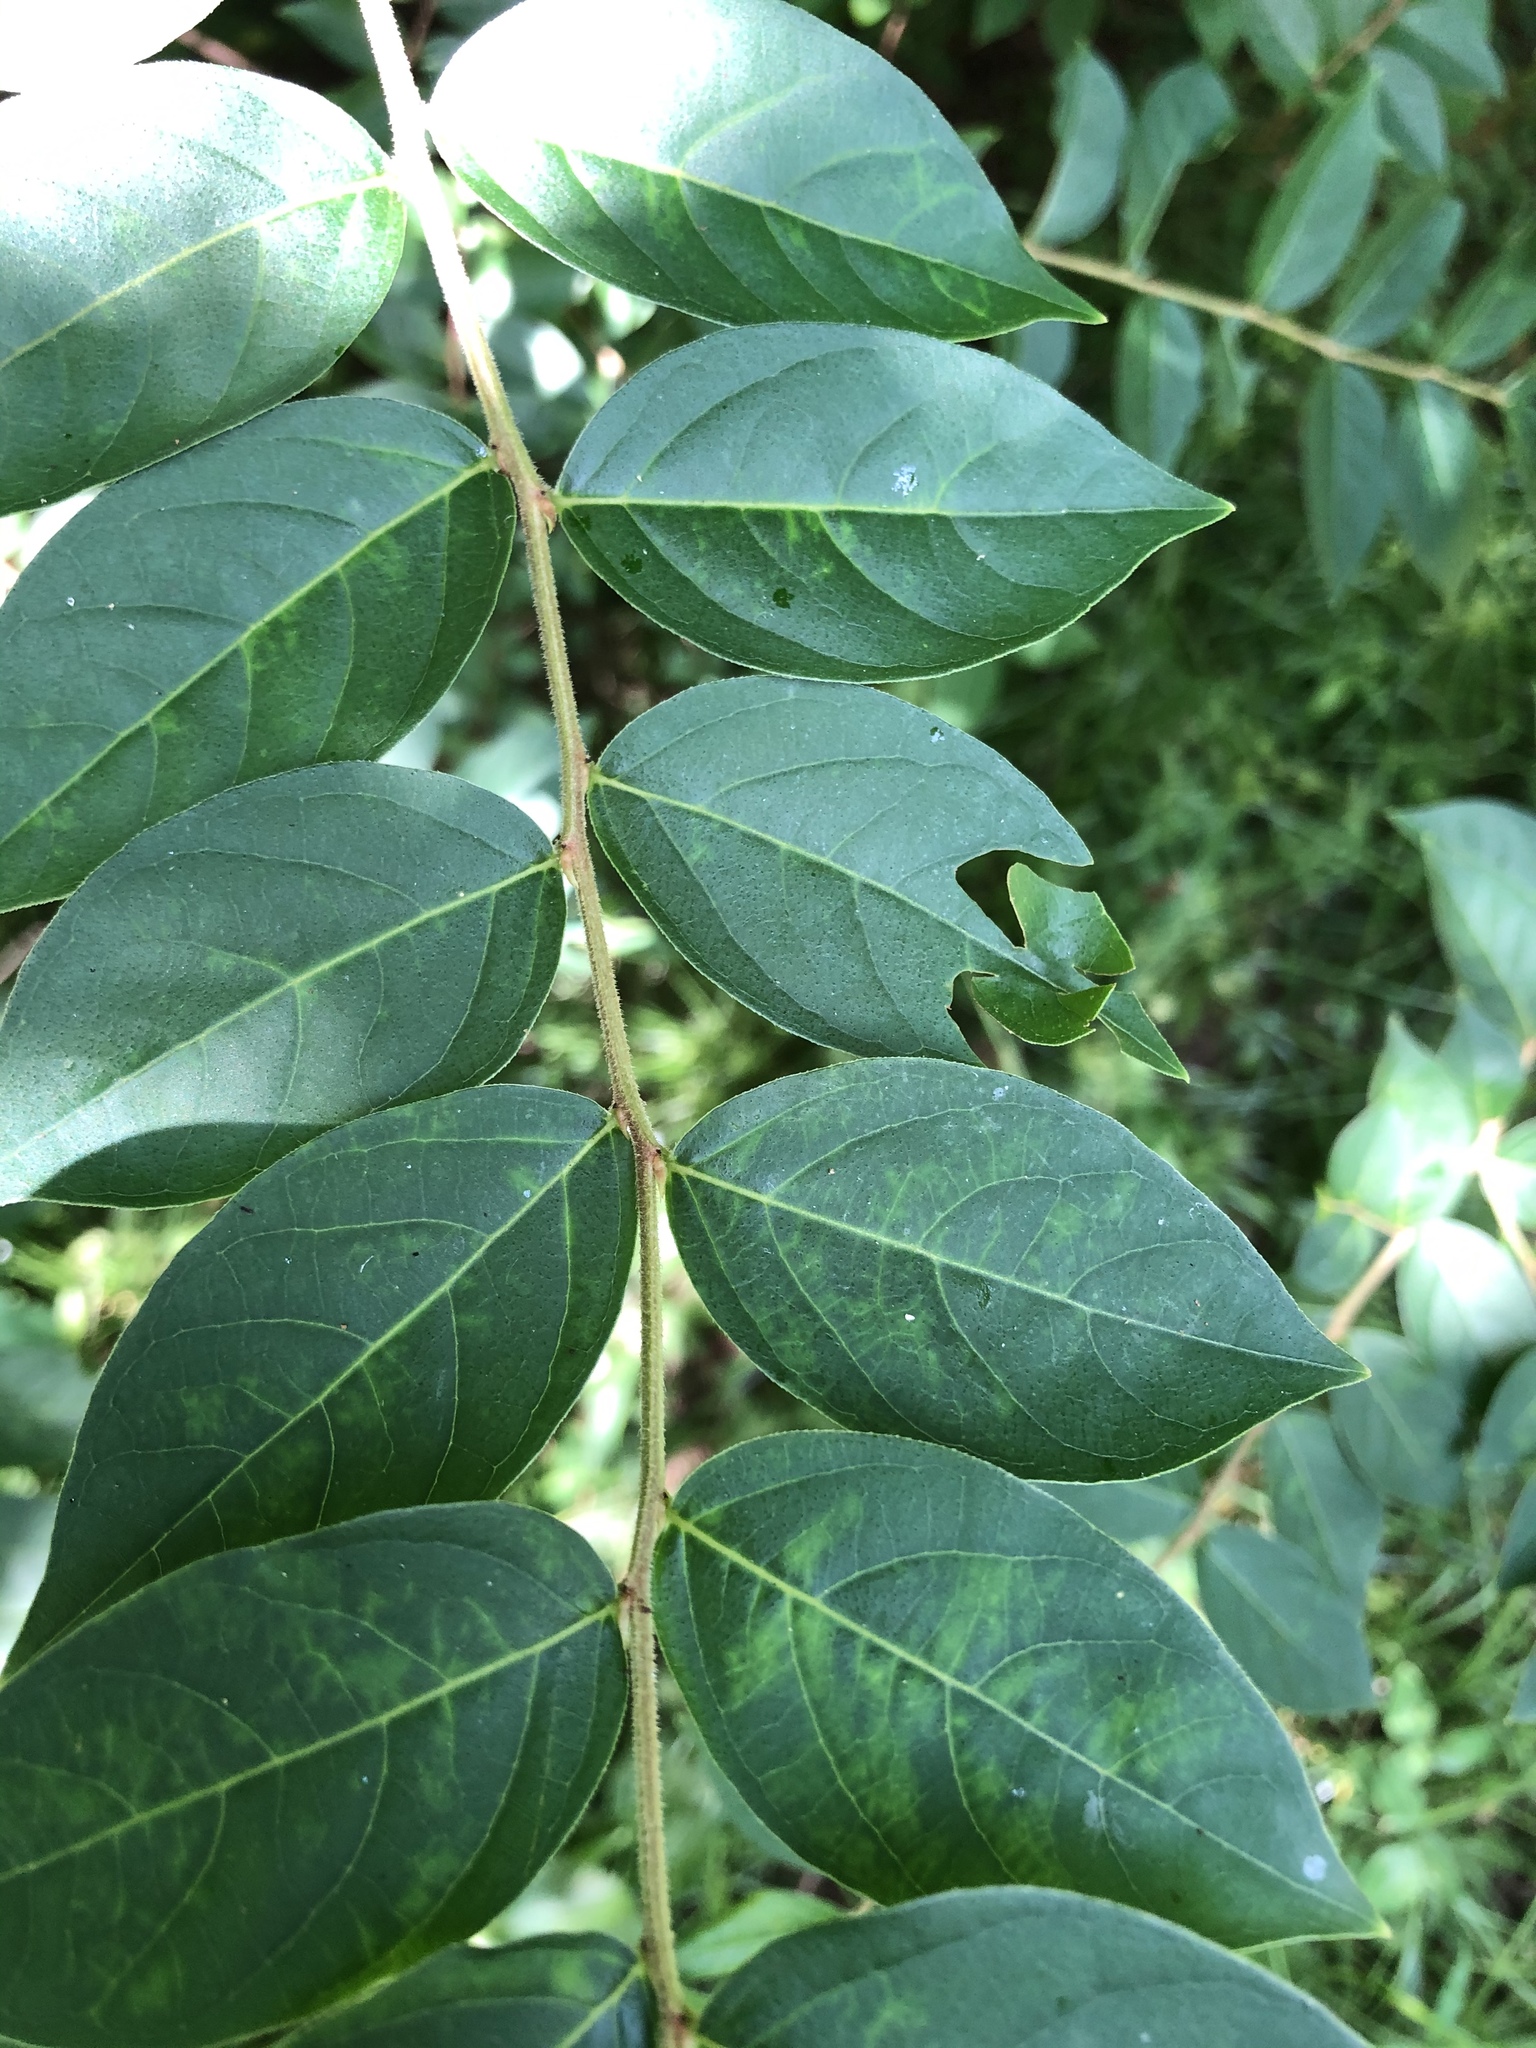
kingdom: Plantae
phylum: Tracheophyta
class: Magnoliopsida
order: Myrtales
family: Lythraceae
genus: Lagerstroemia
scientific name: Lagerstroemia
